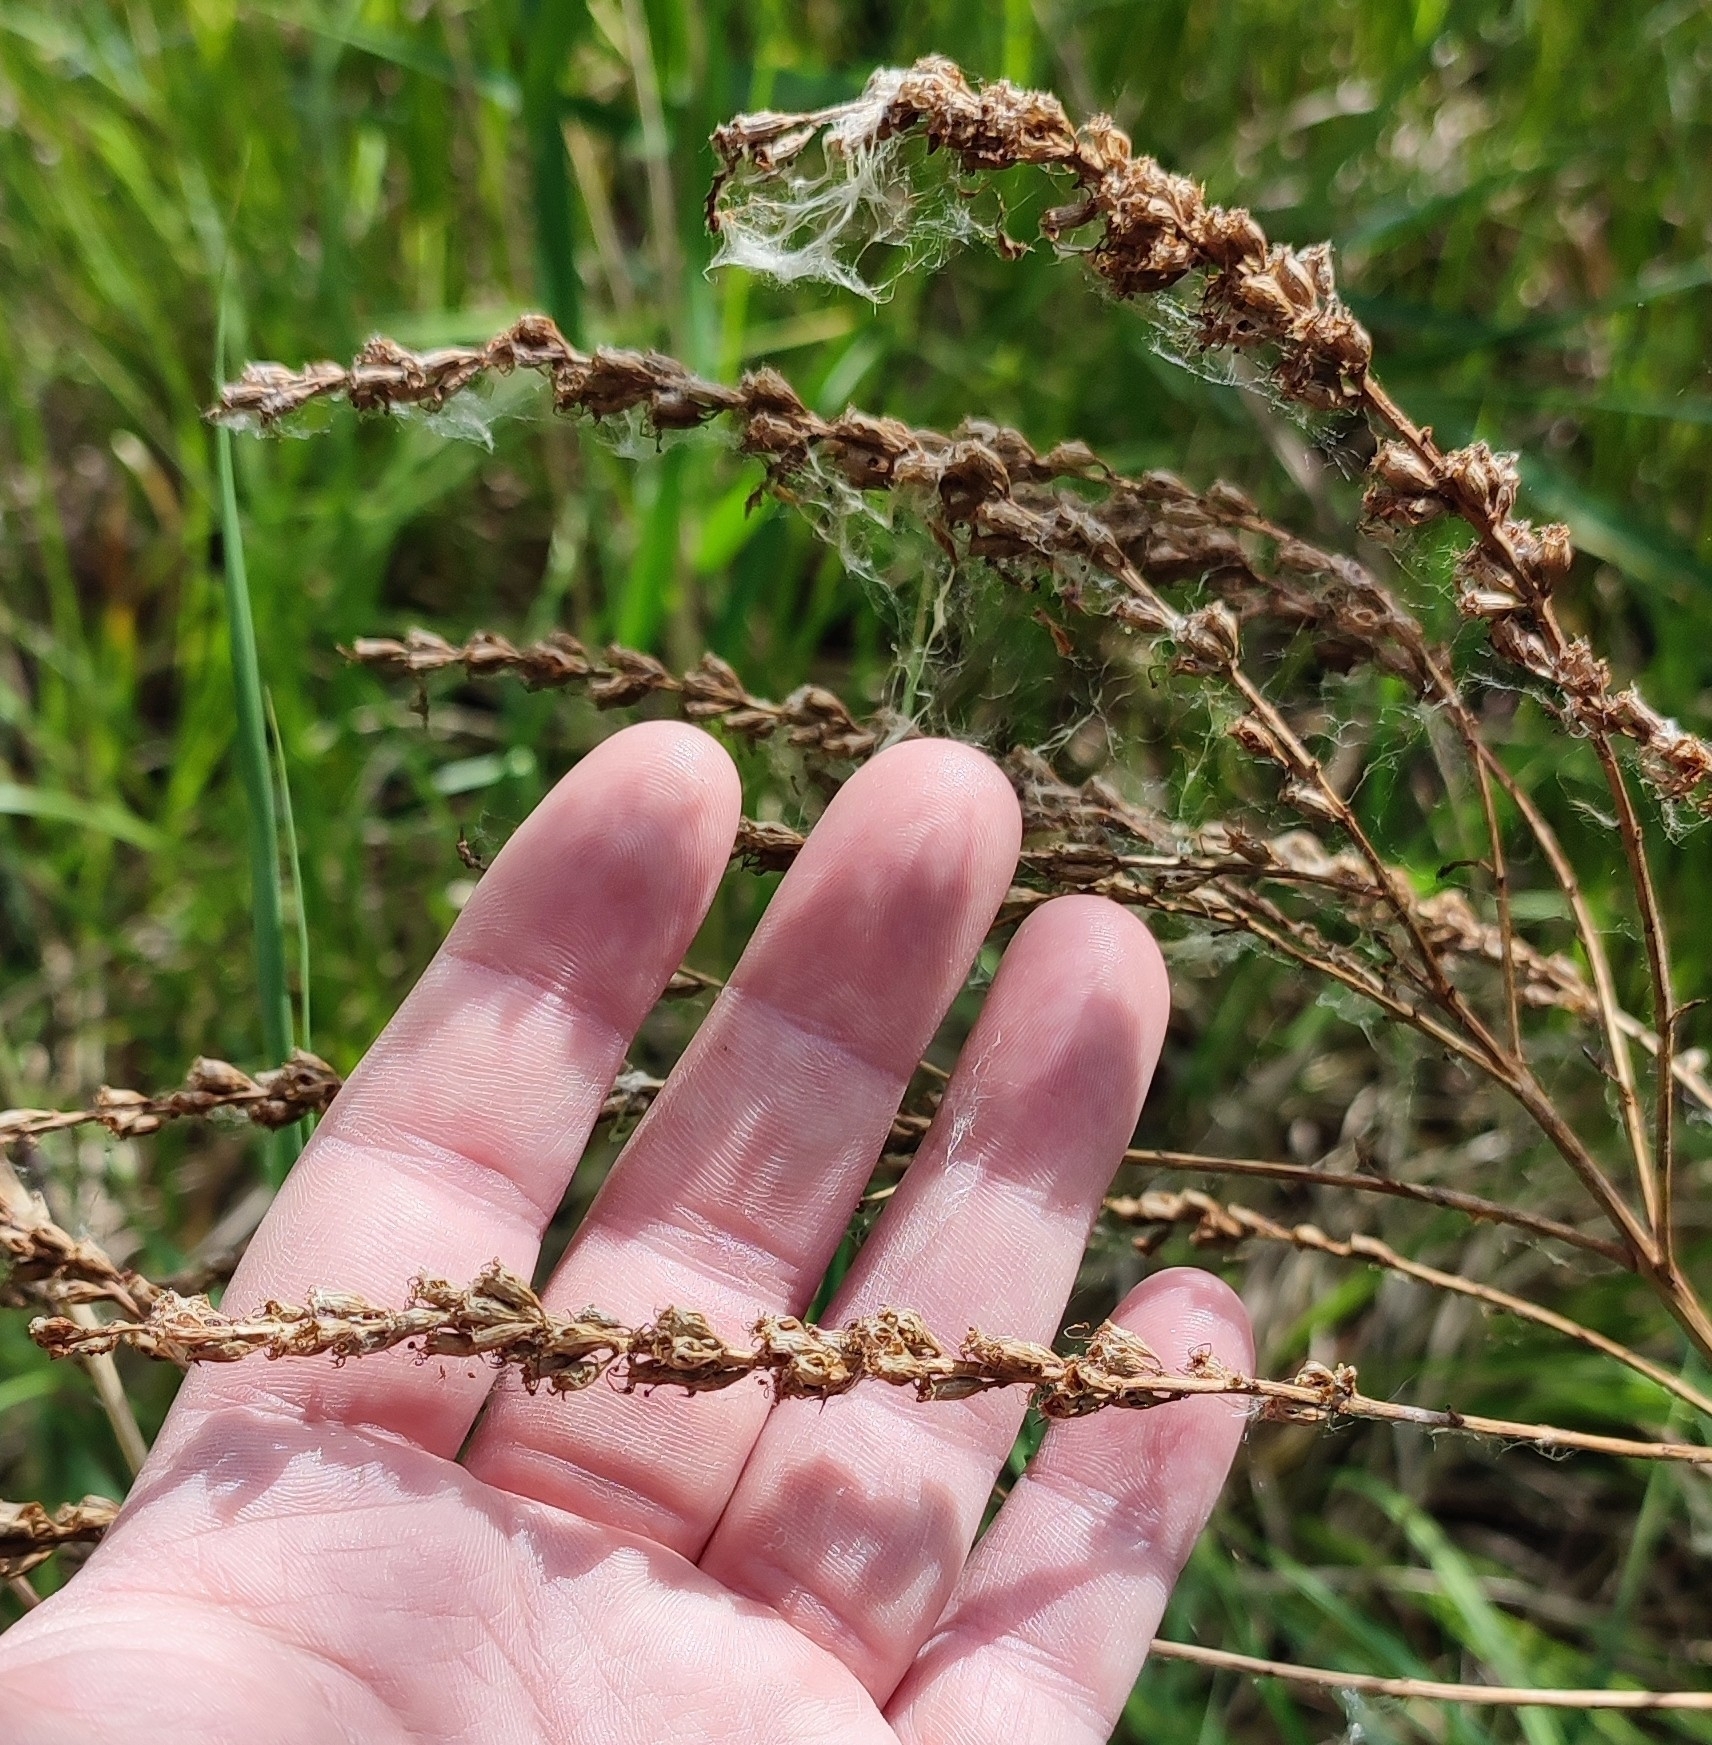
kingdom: Plantae
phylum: Tracheophyta
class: Magnoliopsida
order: Myrtales
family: Lythraceae
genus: Lythrum
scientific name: Lythrum salicaria
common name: Purple loosestrife
